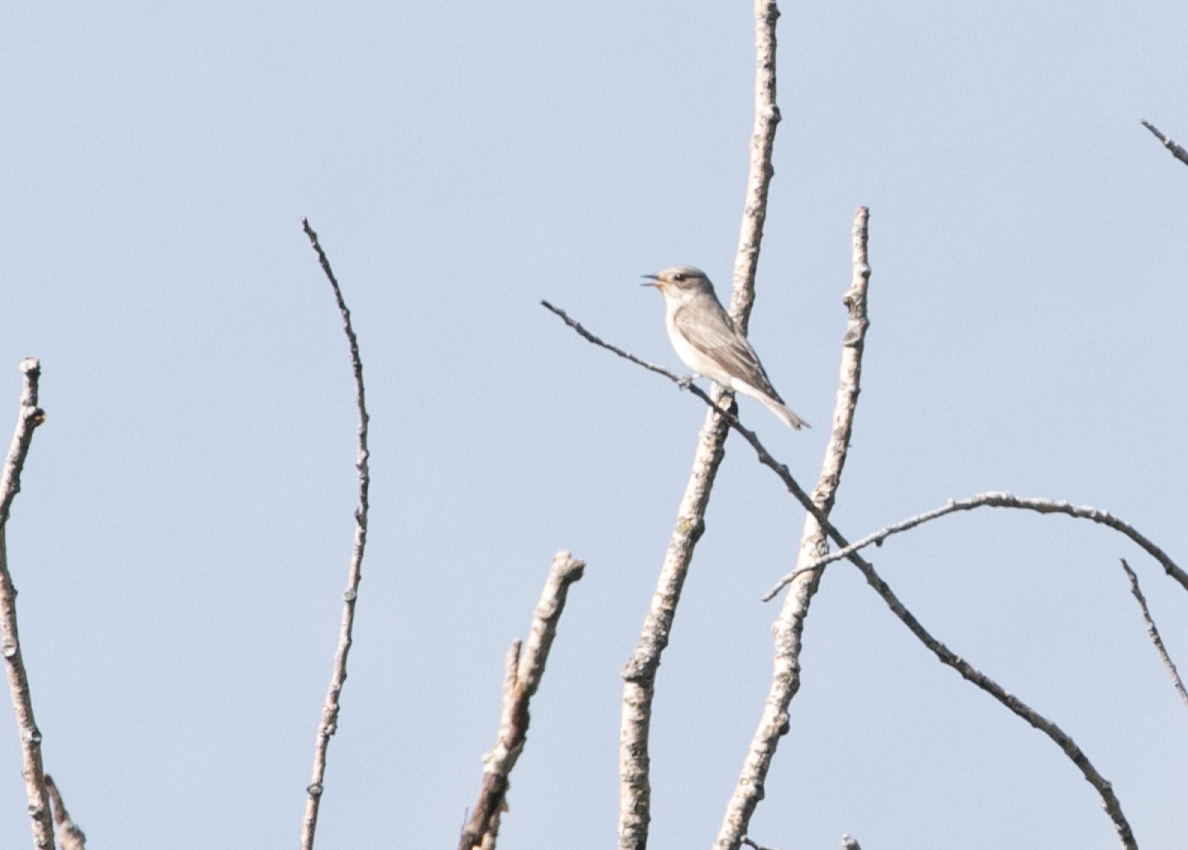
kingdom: Animalia
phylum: Chordata
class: Aves
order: Passeriformes
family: Muscicapidae
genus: Muscicapa
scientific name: Muscicapa striata
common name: Spotted flycatcher
